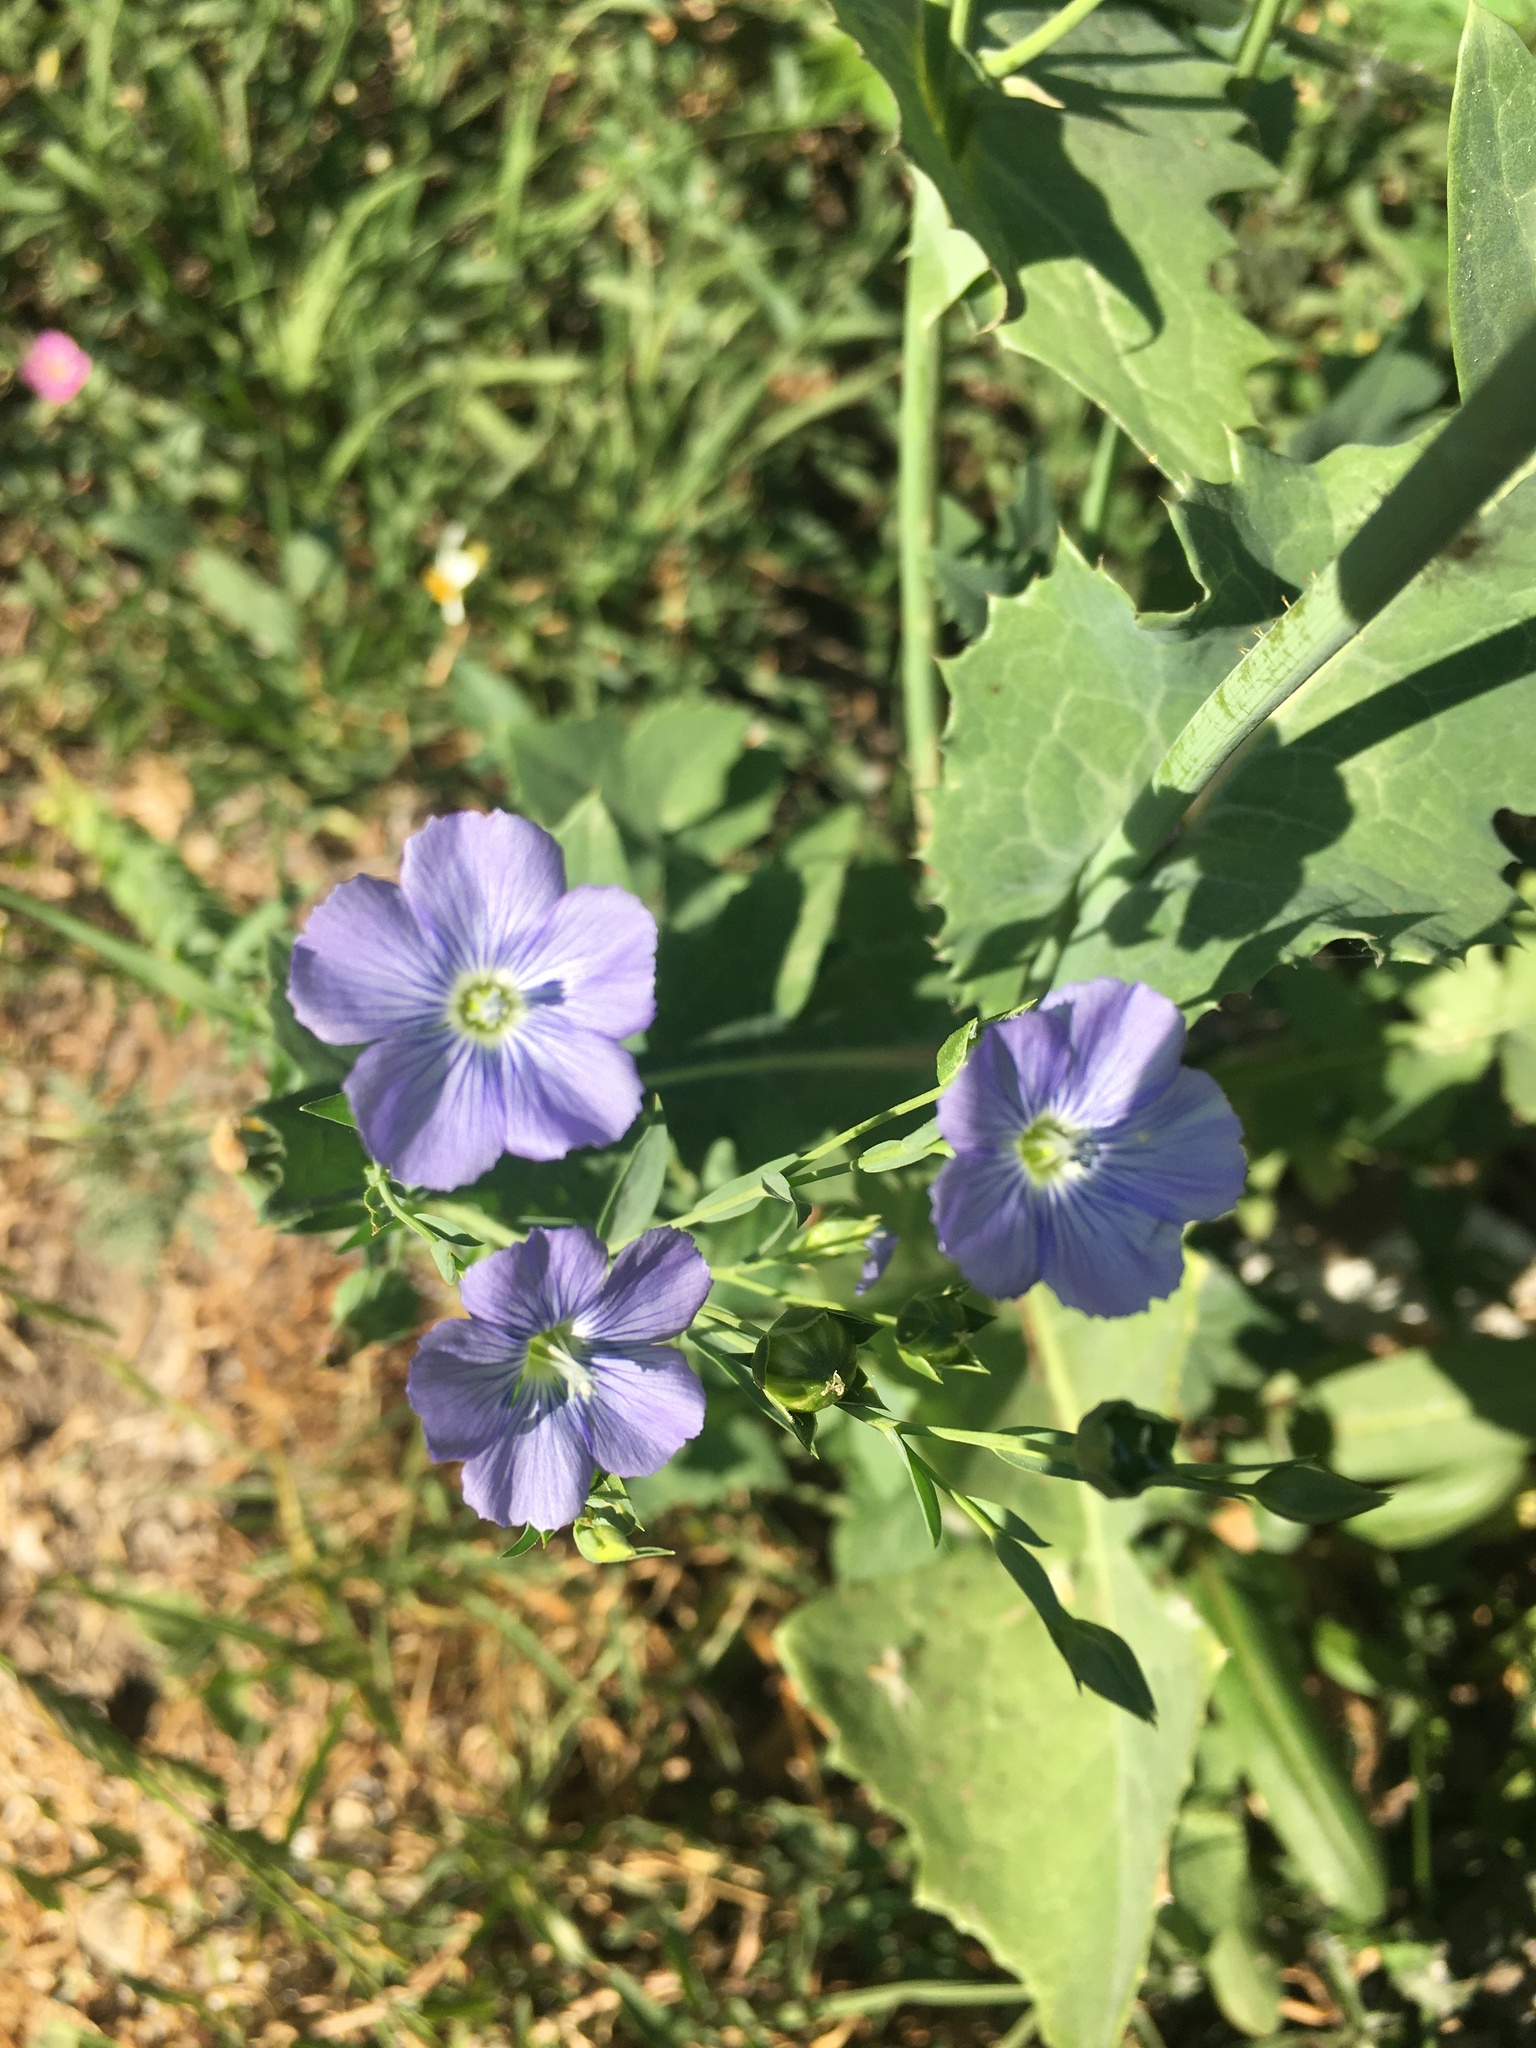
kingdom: Plantae
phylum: Tracheophyta
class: Magnoliopsida
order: Malpighiales
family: Linaceae
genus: Linum
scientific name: Linum usitatissimum
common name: Flax
